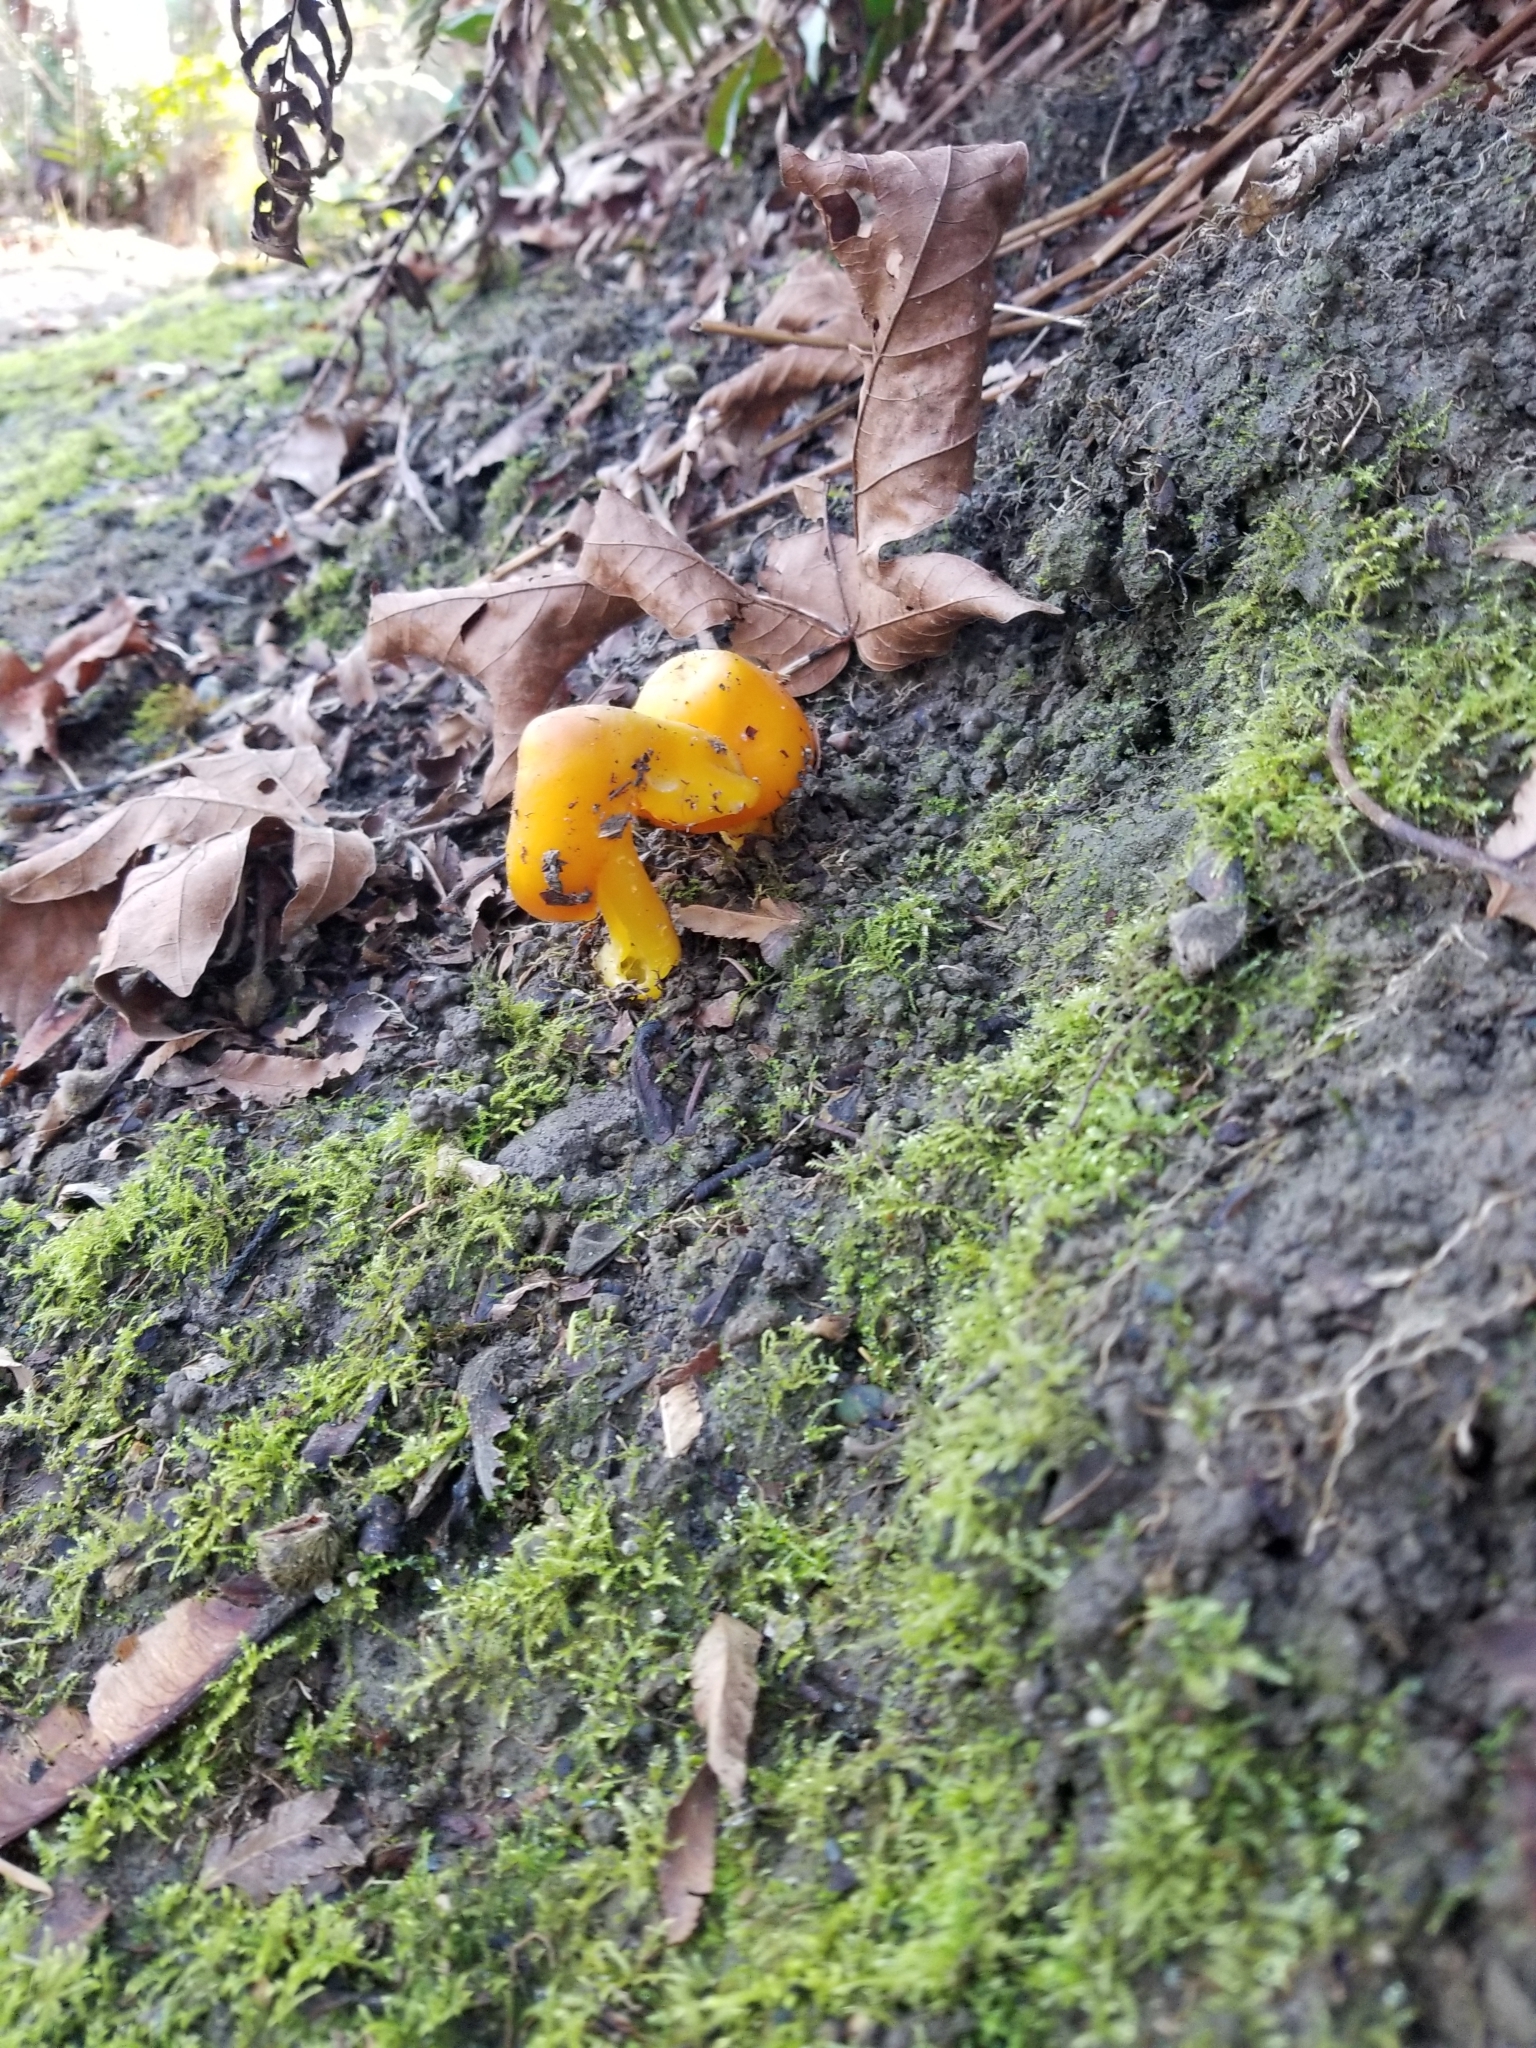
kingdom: Fungi
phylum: Basidiomycota
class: Agaricomycetes
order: Agaricales
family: Hygrophoraceae
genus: Hygrocybe
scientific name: Hygrocybe flavescens
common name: Golden waxy cap
